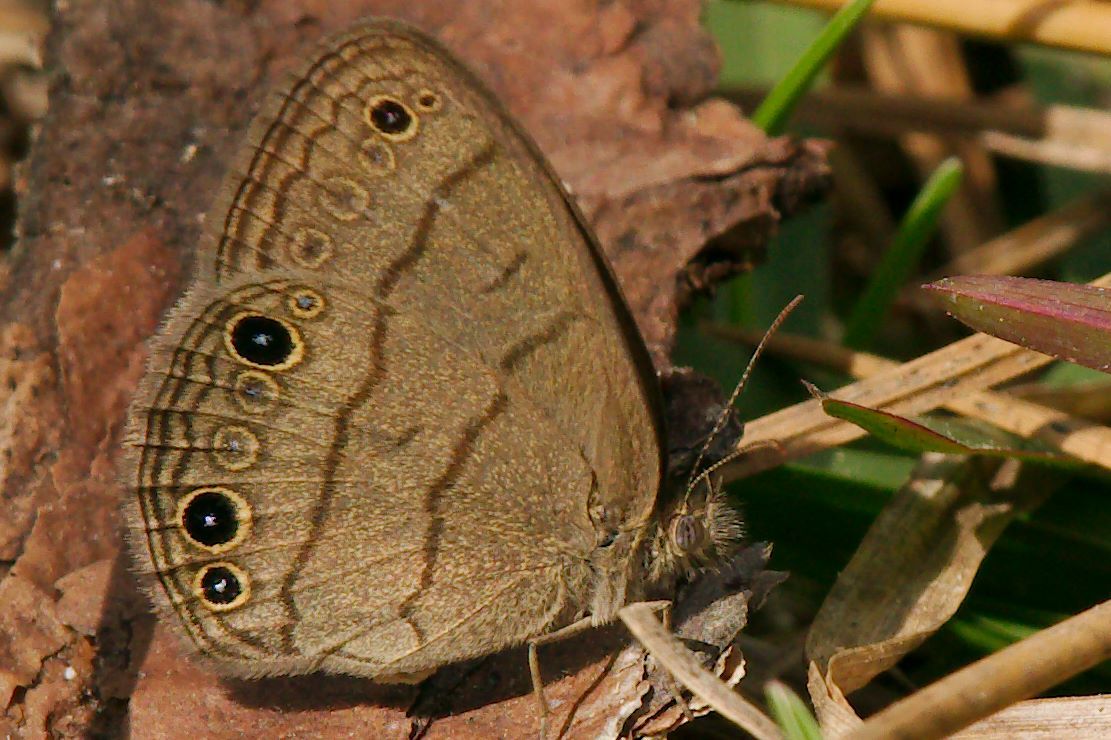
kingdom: Animalia
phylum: Arthropoda
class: Insecta
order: Lepidoptera
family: Nymphalidae
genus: Hermeuptychia
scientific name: Hermeuptychia hermes
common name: Hermes satyr
